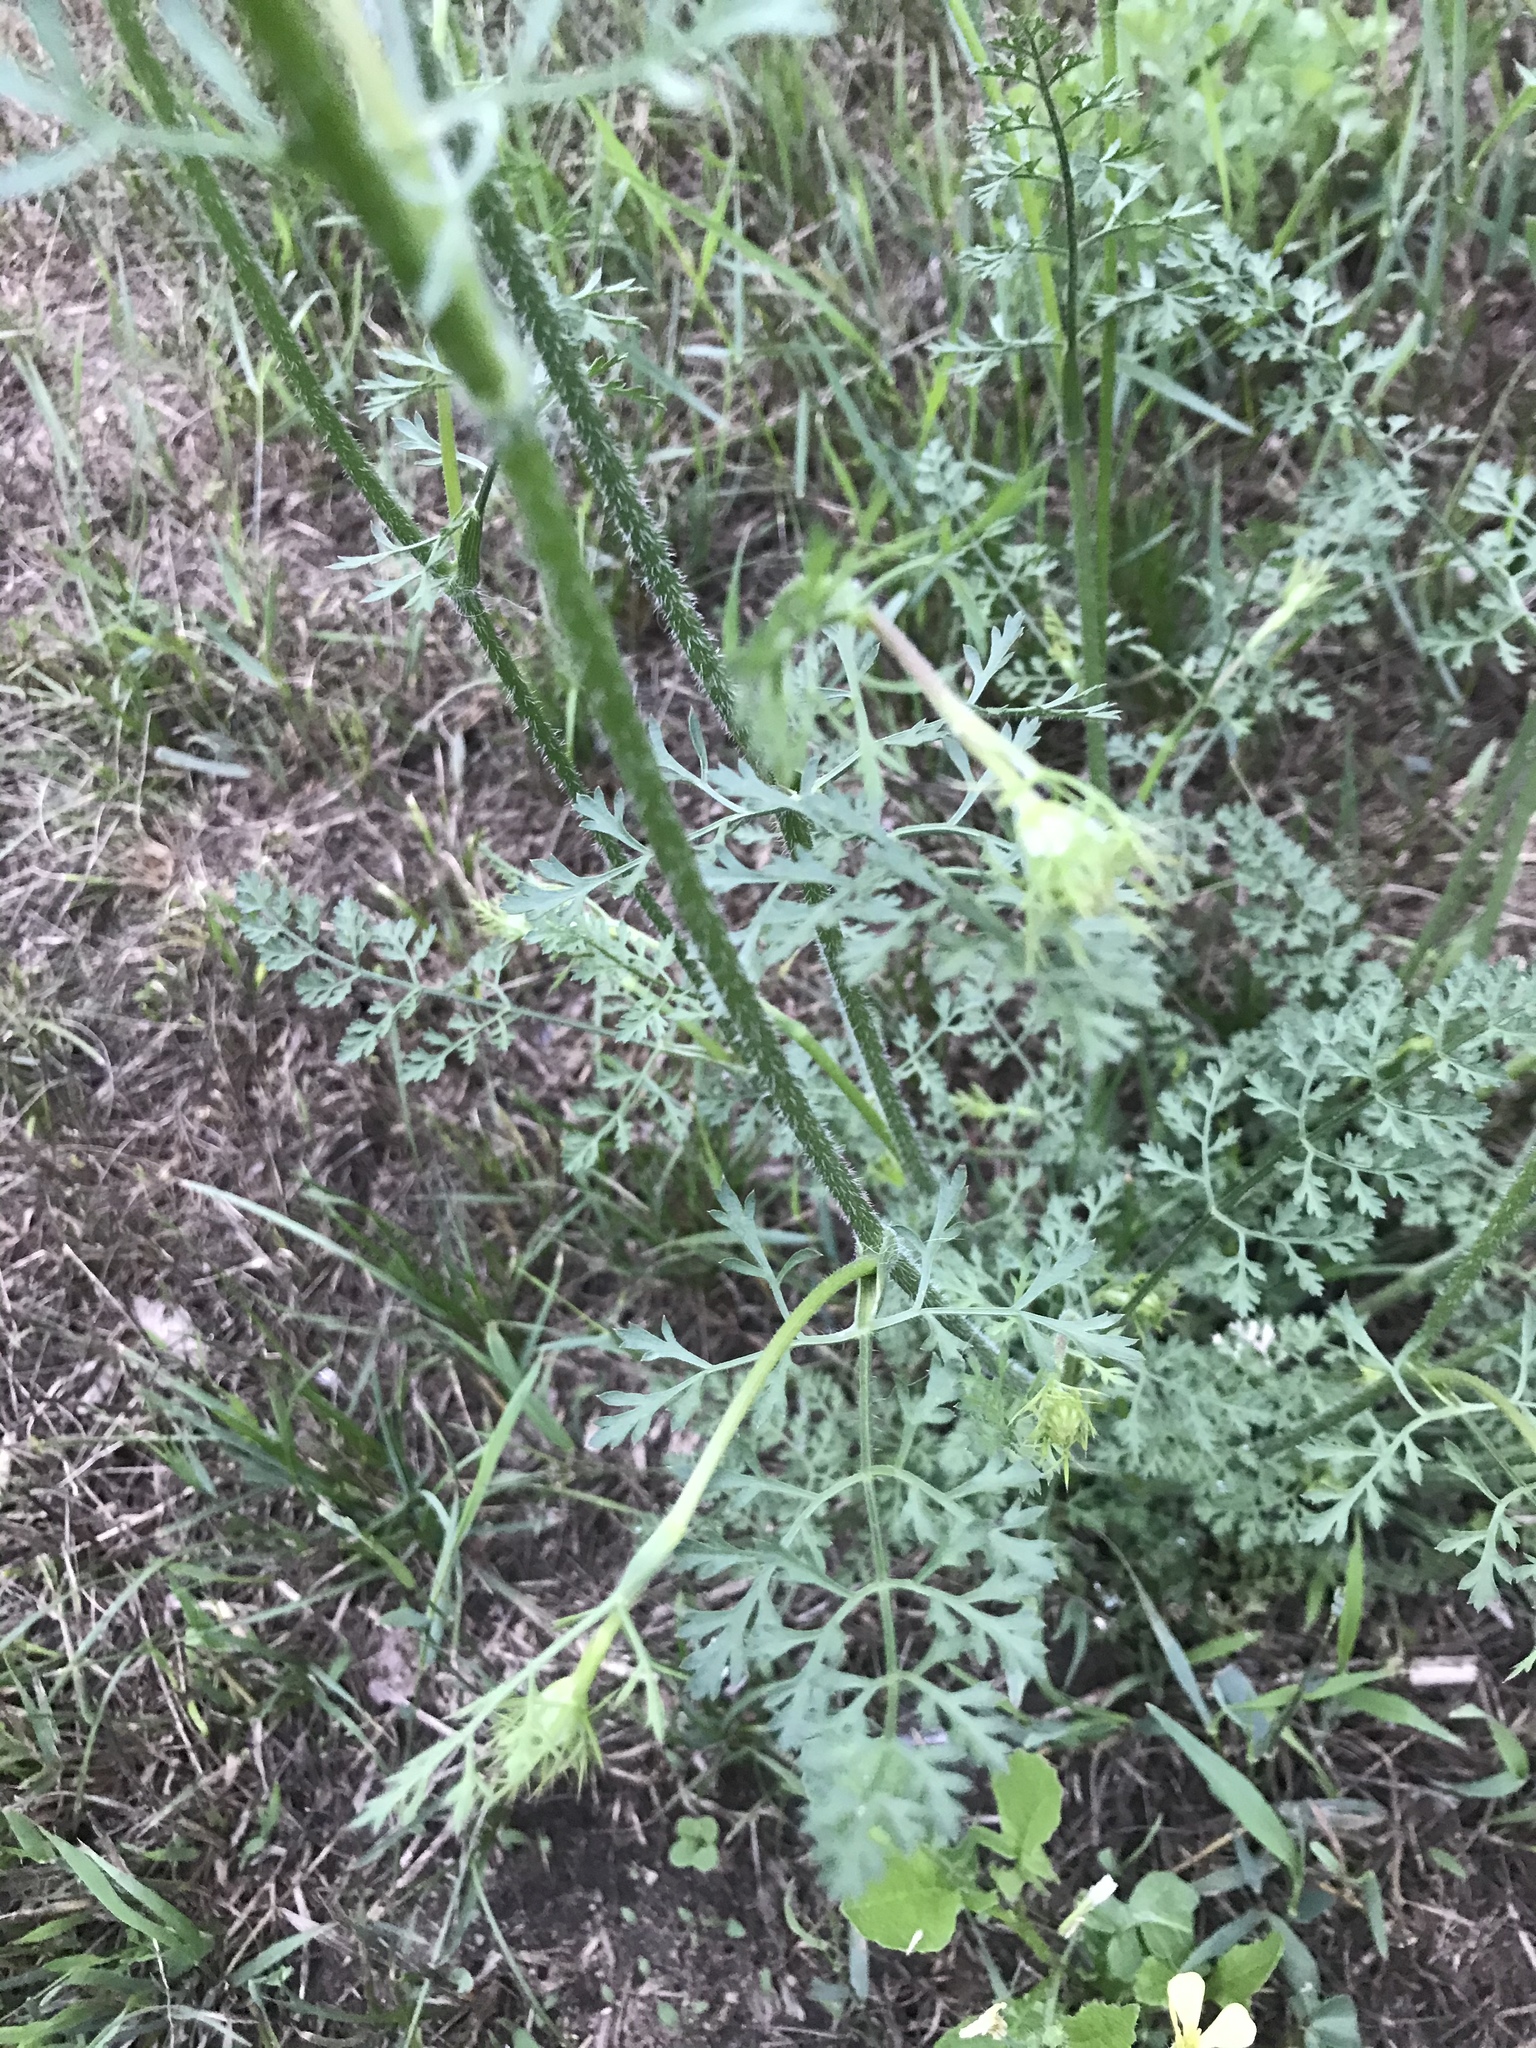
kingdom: Plantae
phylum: Tracheophyta
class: Magnoliopsida
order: Apiales
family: Apiaceae
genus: Daucus
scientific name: Daucus carota
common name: Wild carrot
